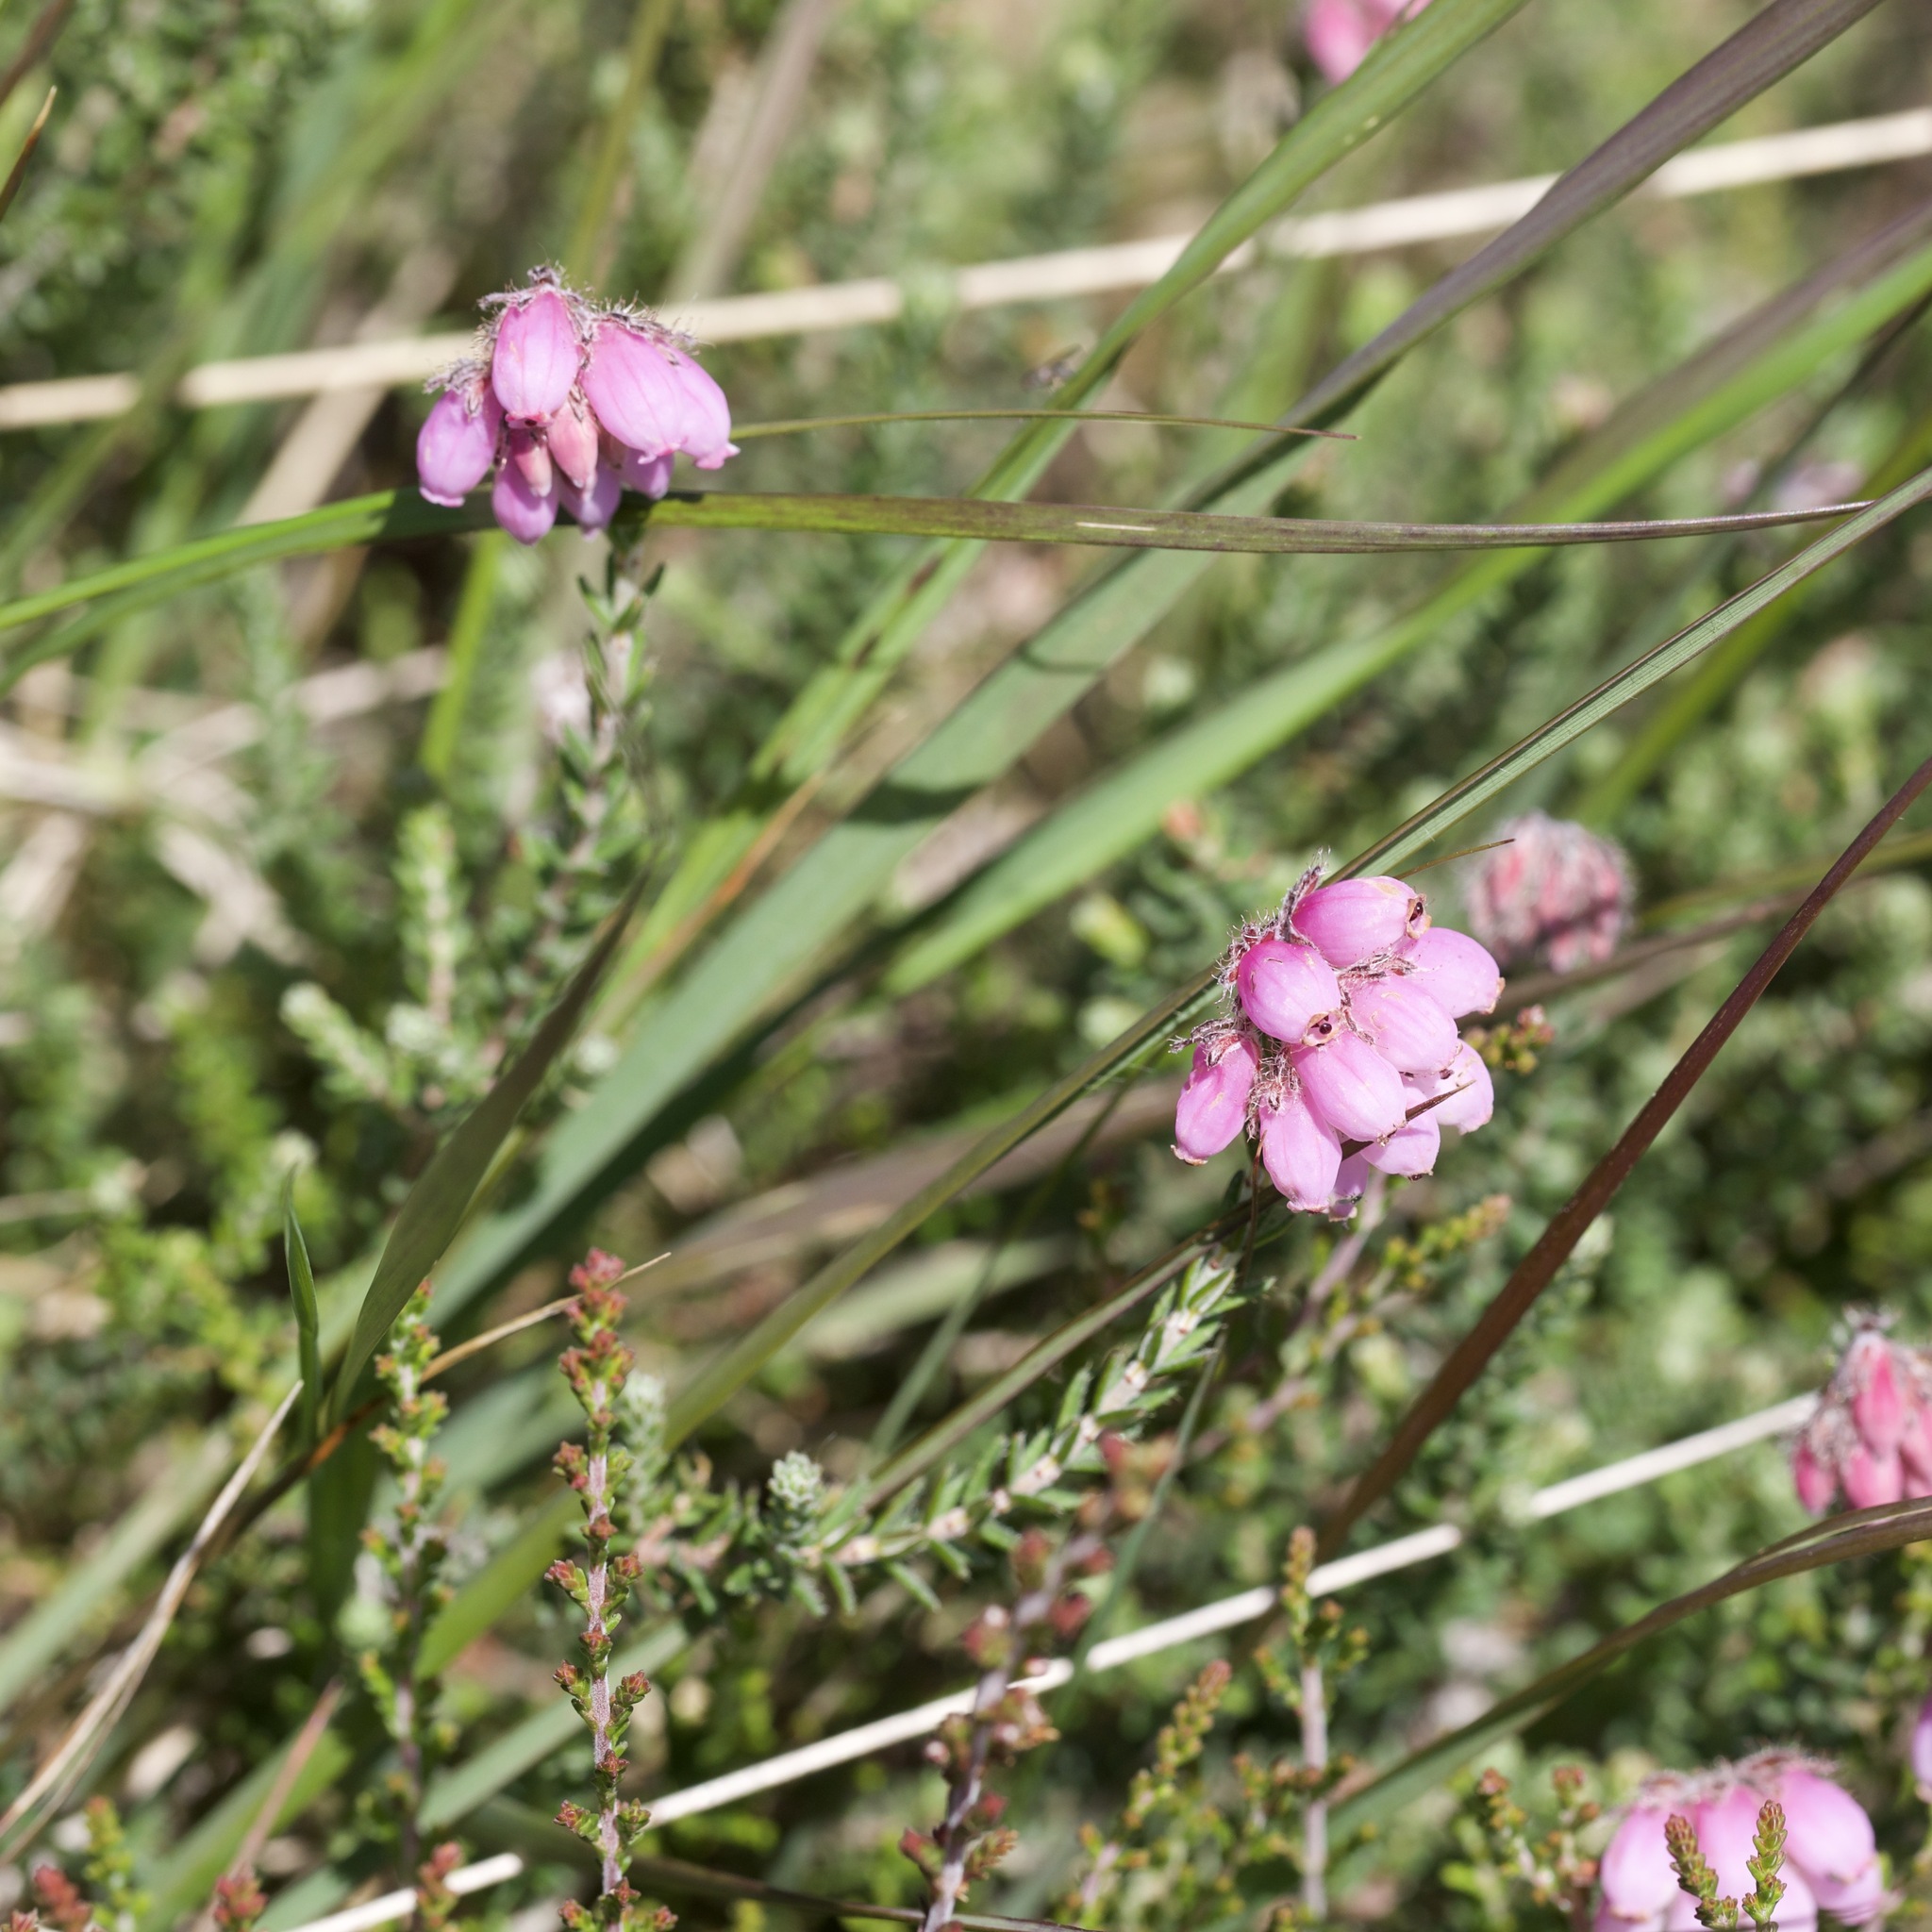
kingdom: Plantae
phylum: Tracheophyta
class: Magnoliopsida
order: Ericales
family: Ericaceae
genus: Erica
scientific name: Erica tetralix
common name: Cross-leaved heath
